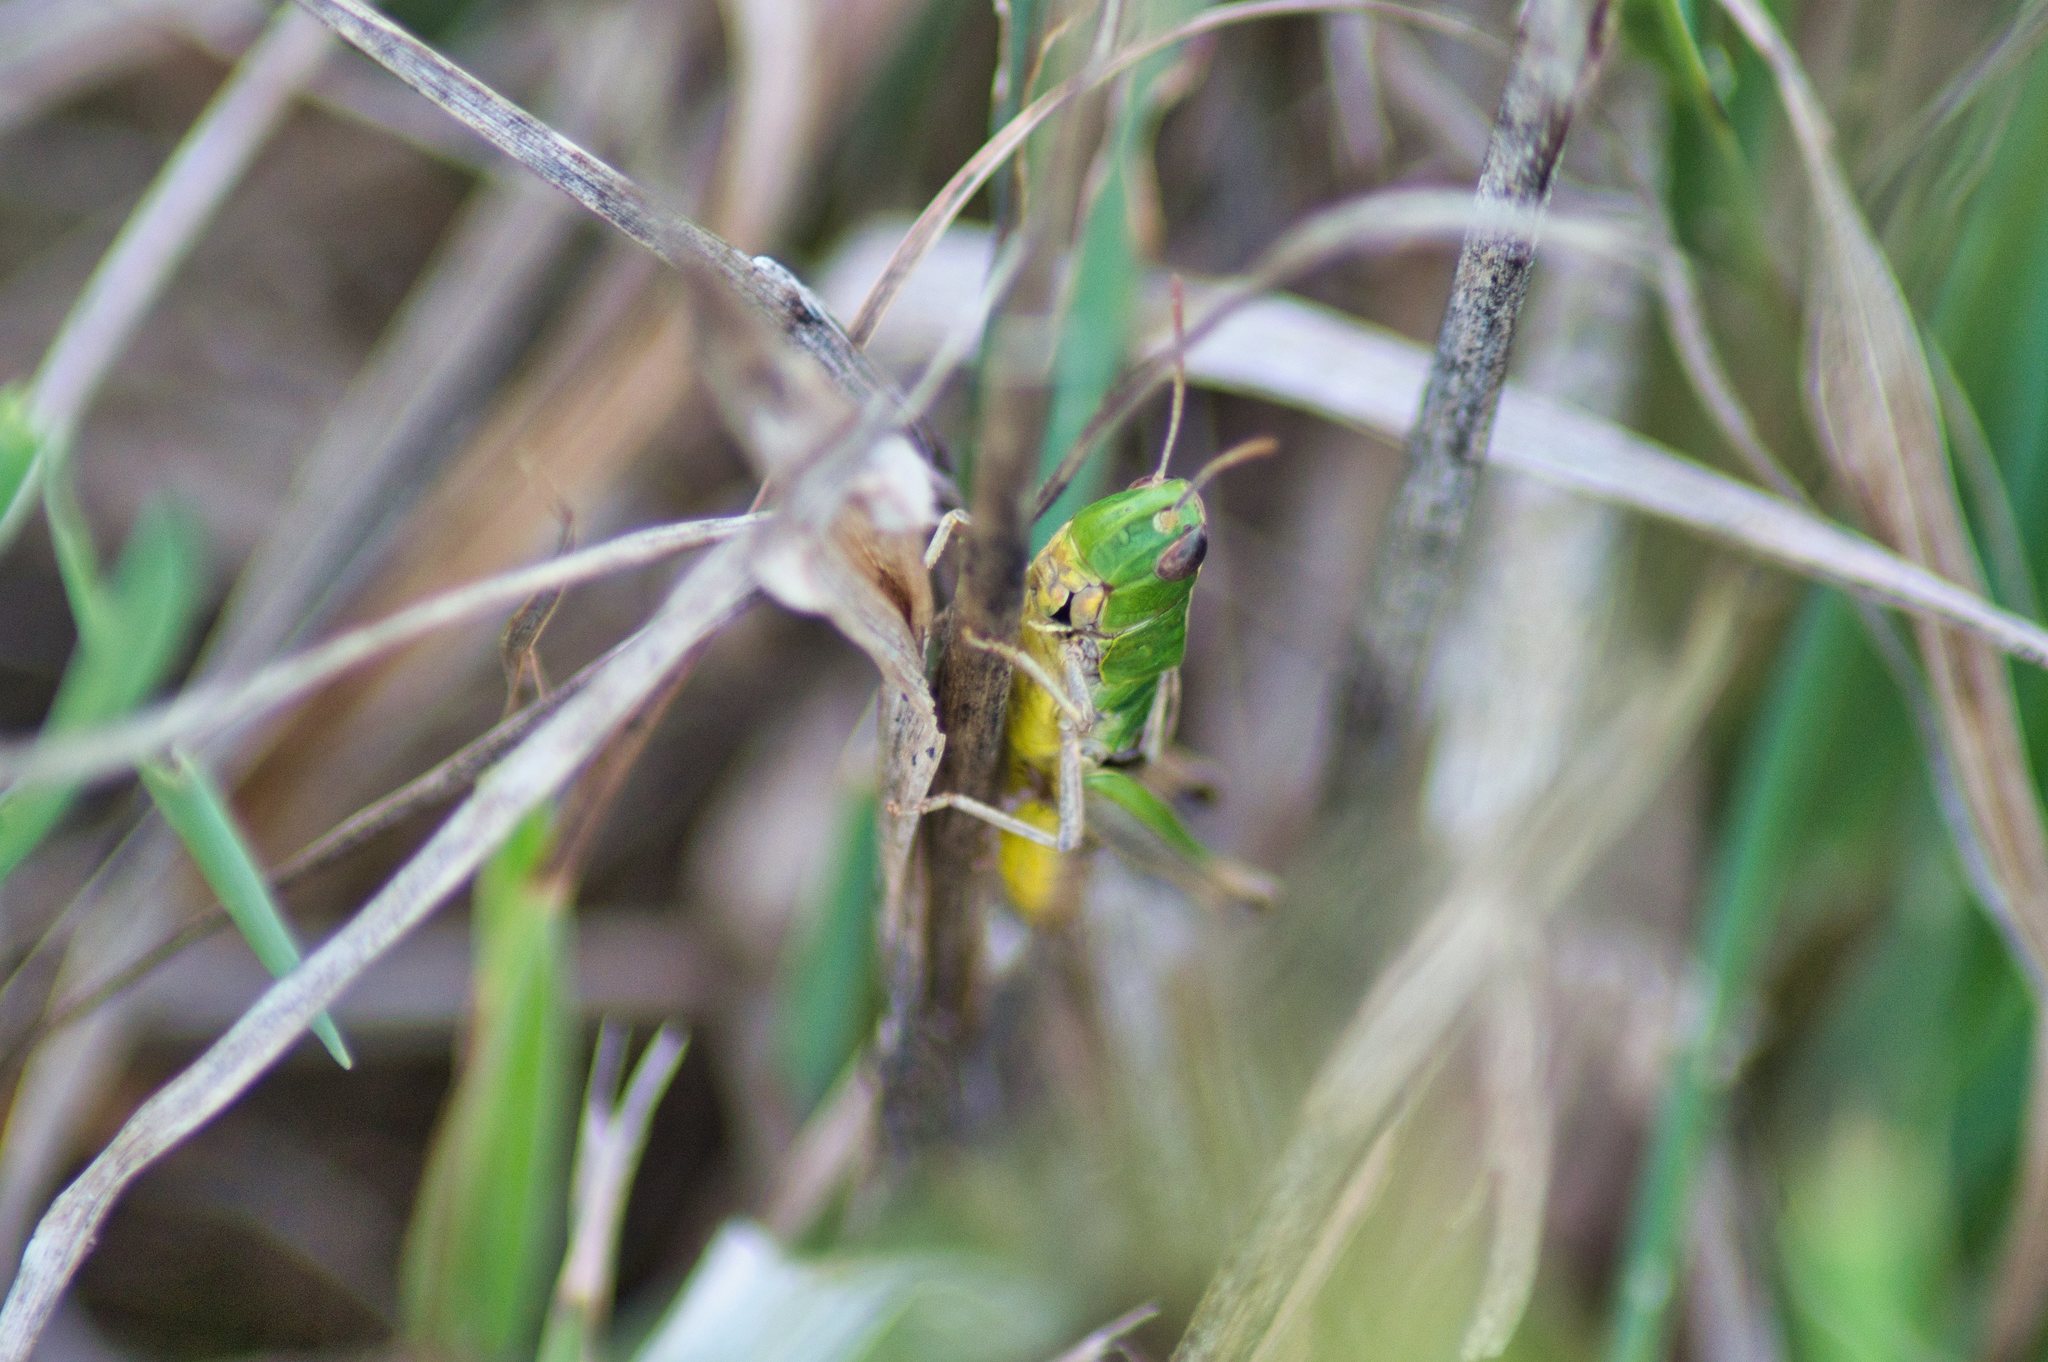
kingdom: Animalia
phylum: Arthropoda
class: Insecta
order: Orthoptera
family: Acrididae
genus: Pseudochorthippus
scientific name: Pseudochorthippus parallelus
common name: Meadow grasshopper
